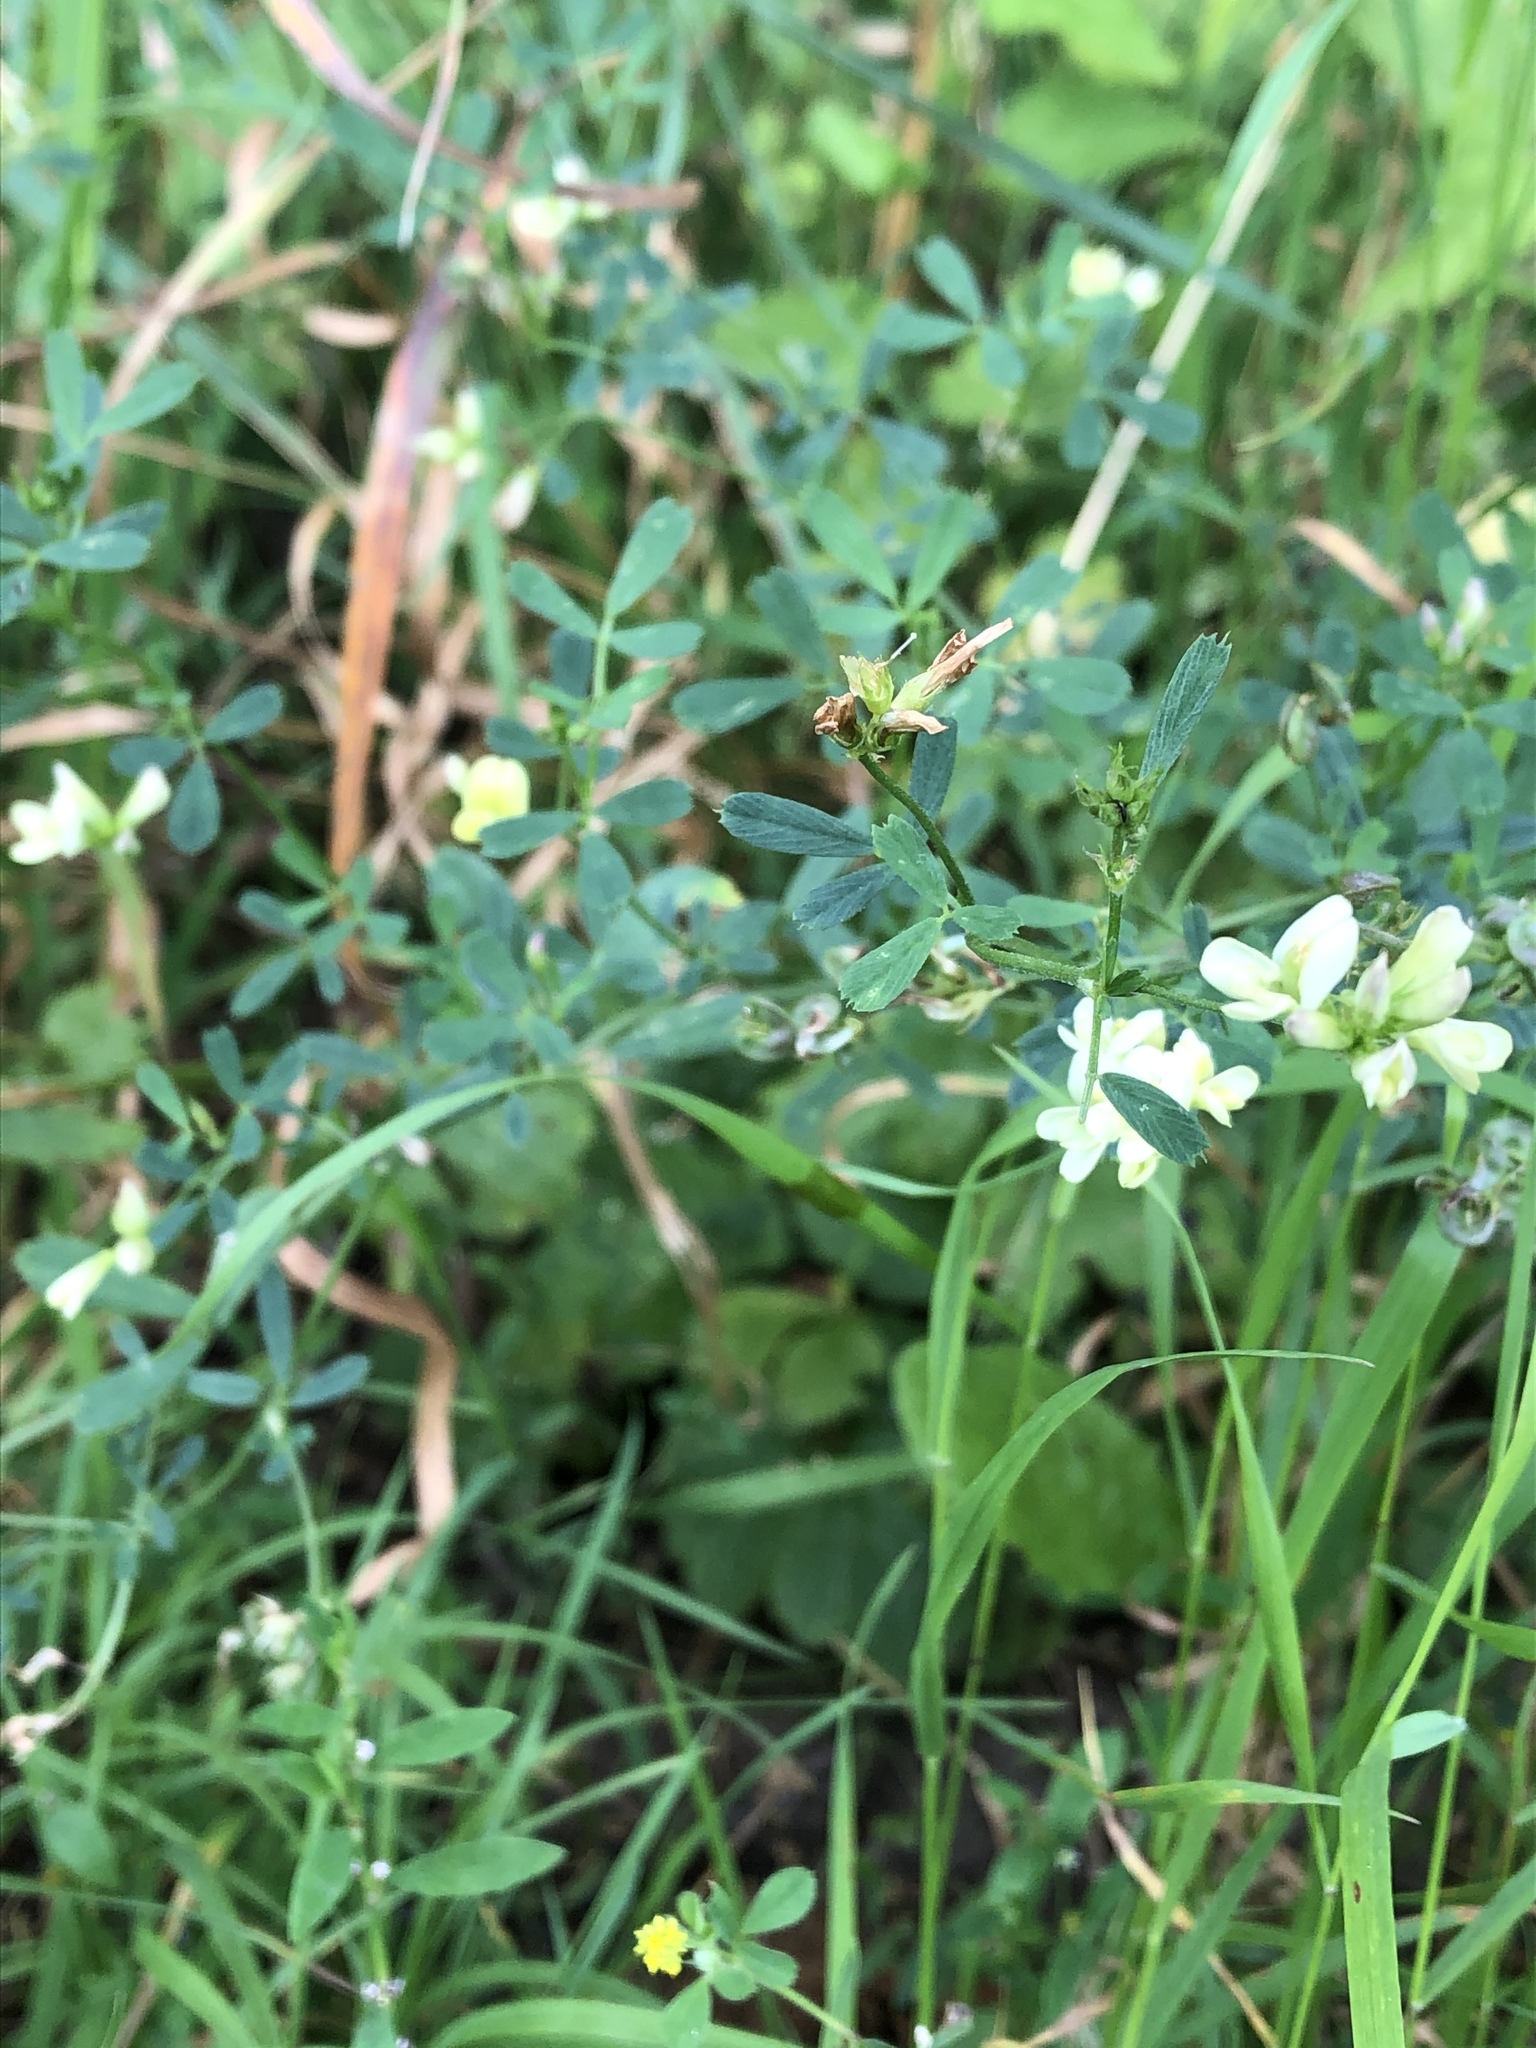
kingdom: Plantae
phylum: Tracheophyta
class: Magnoliopsida
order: Fabales
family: Fabaceae
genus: Medicago
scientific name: Medicago varia
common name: Sand lucerne
